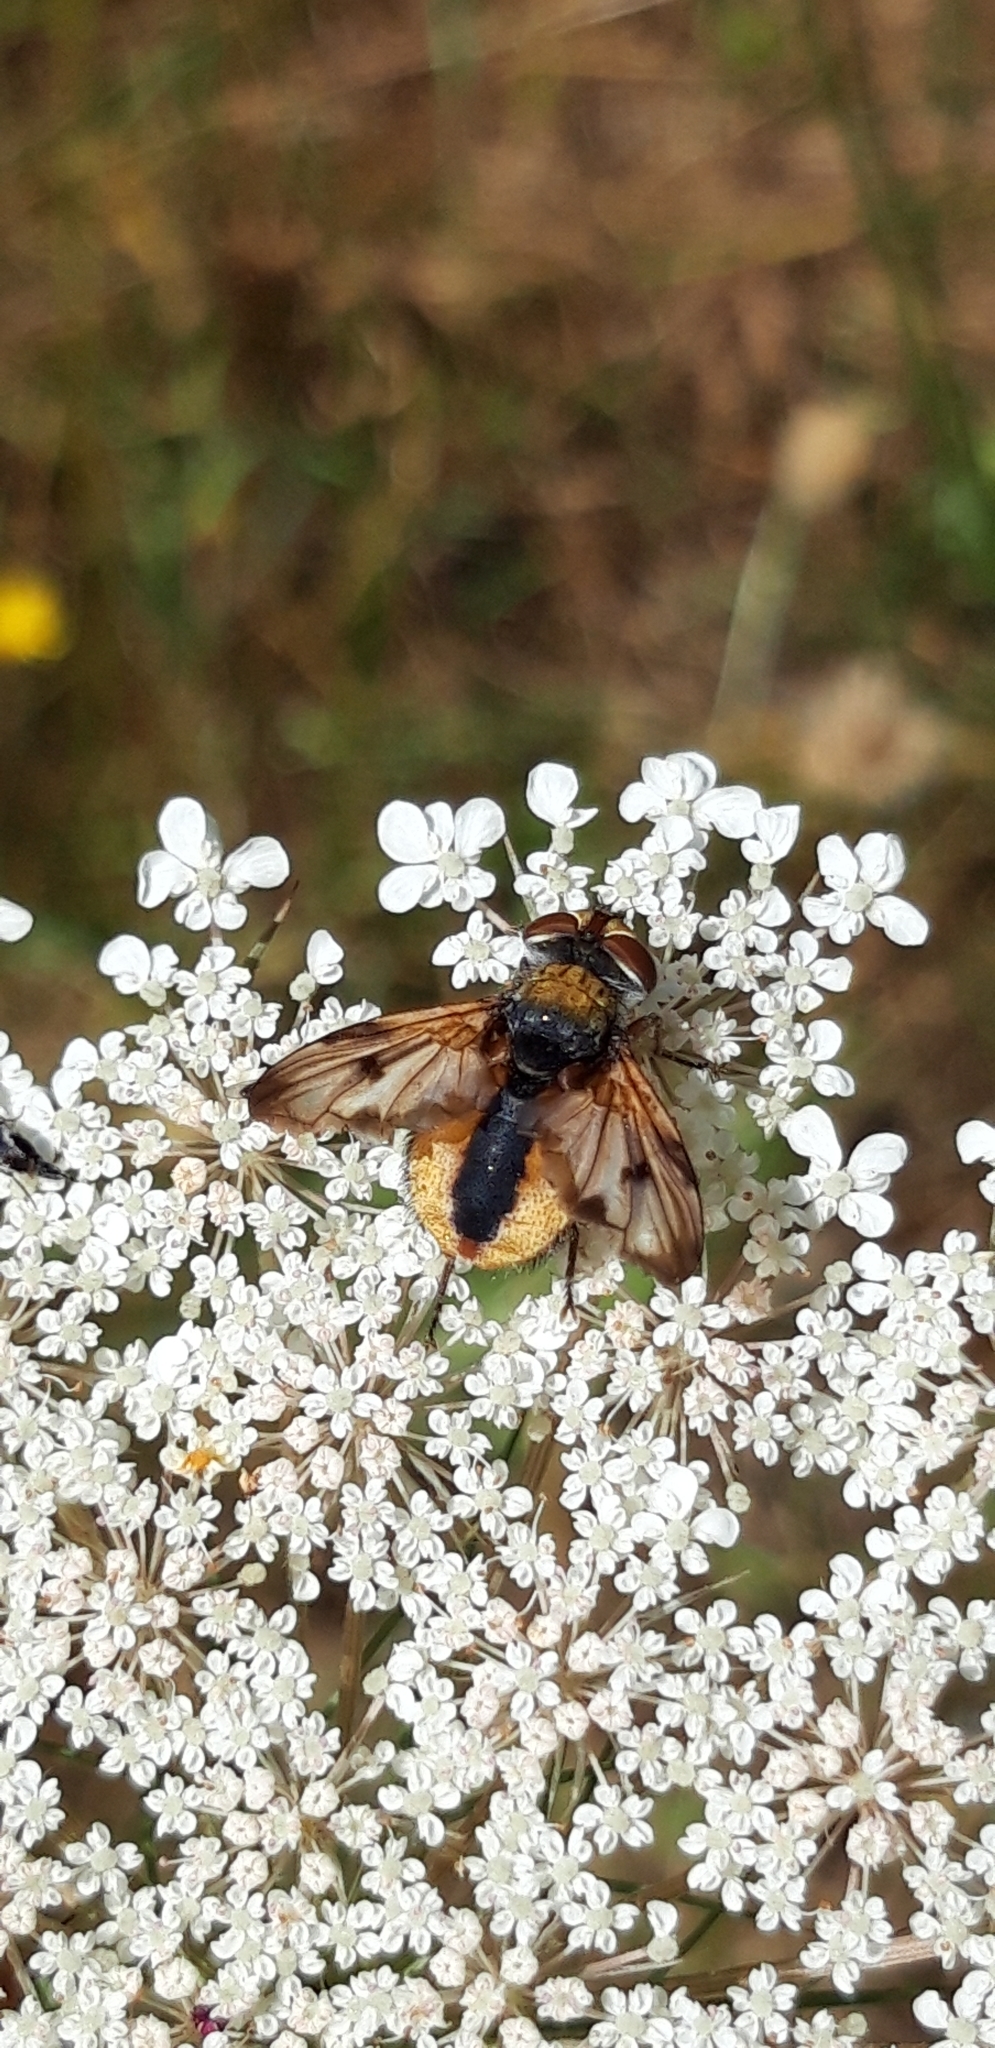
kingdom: Animalia
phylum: Arthropoda
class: Insecta
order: Diptera
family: Tachinidae
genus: Ectophasia
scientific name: Ectophasia crassipennis
